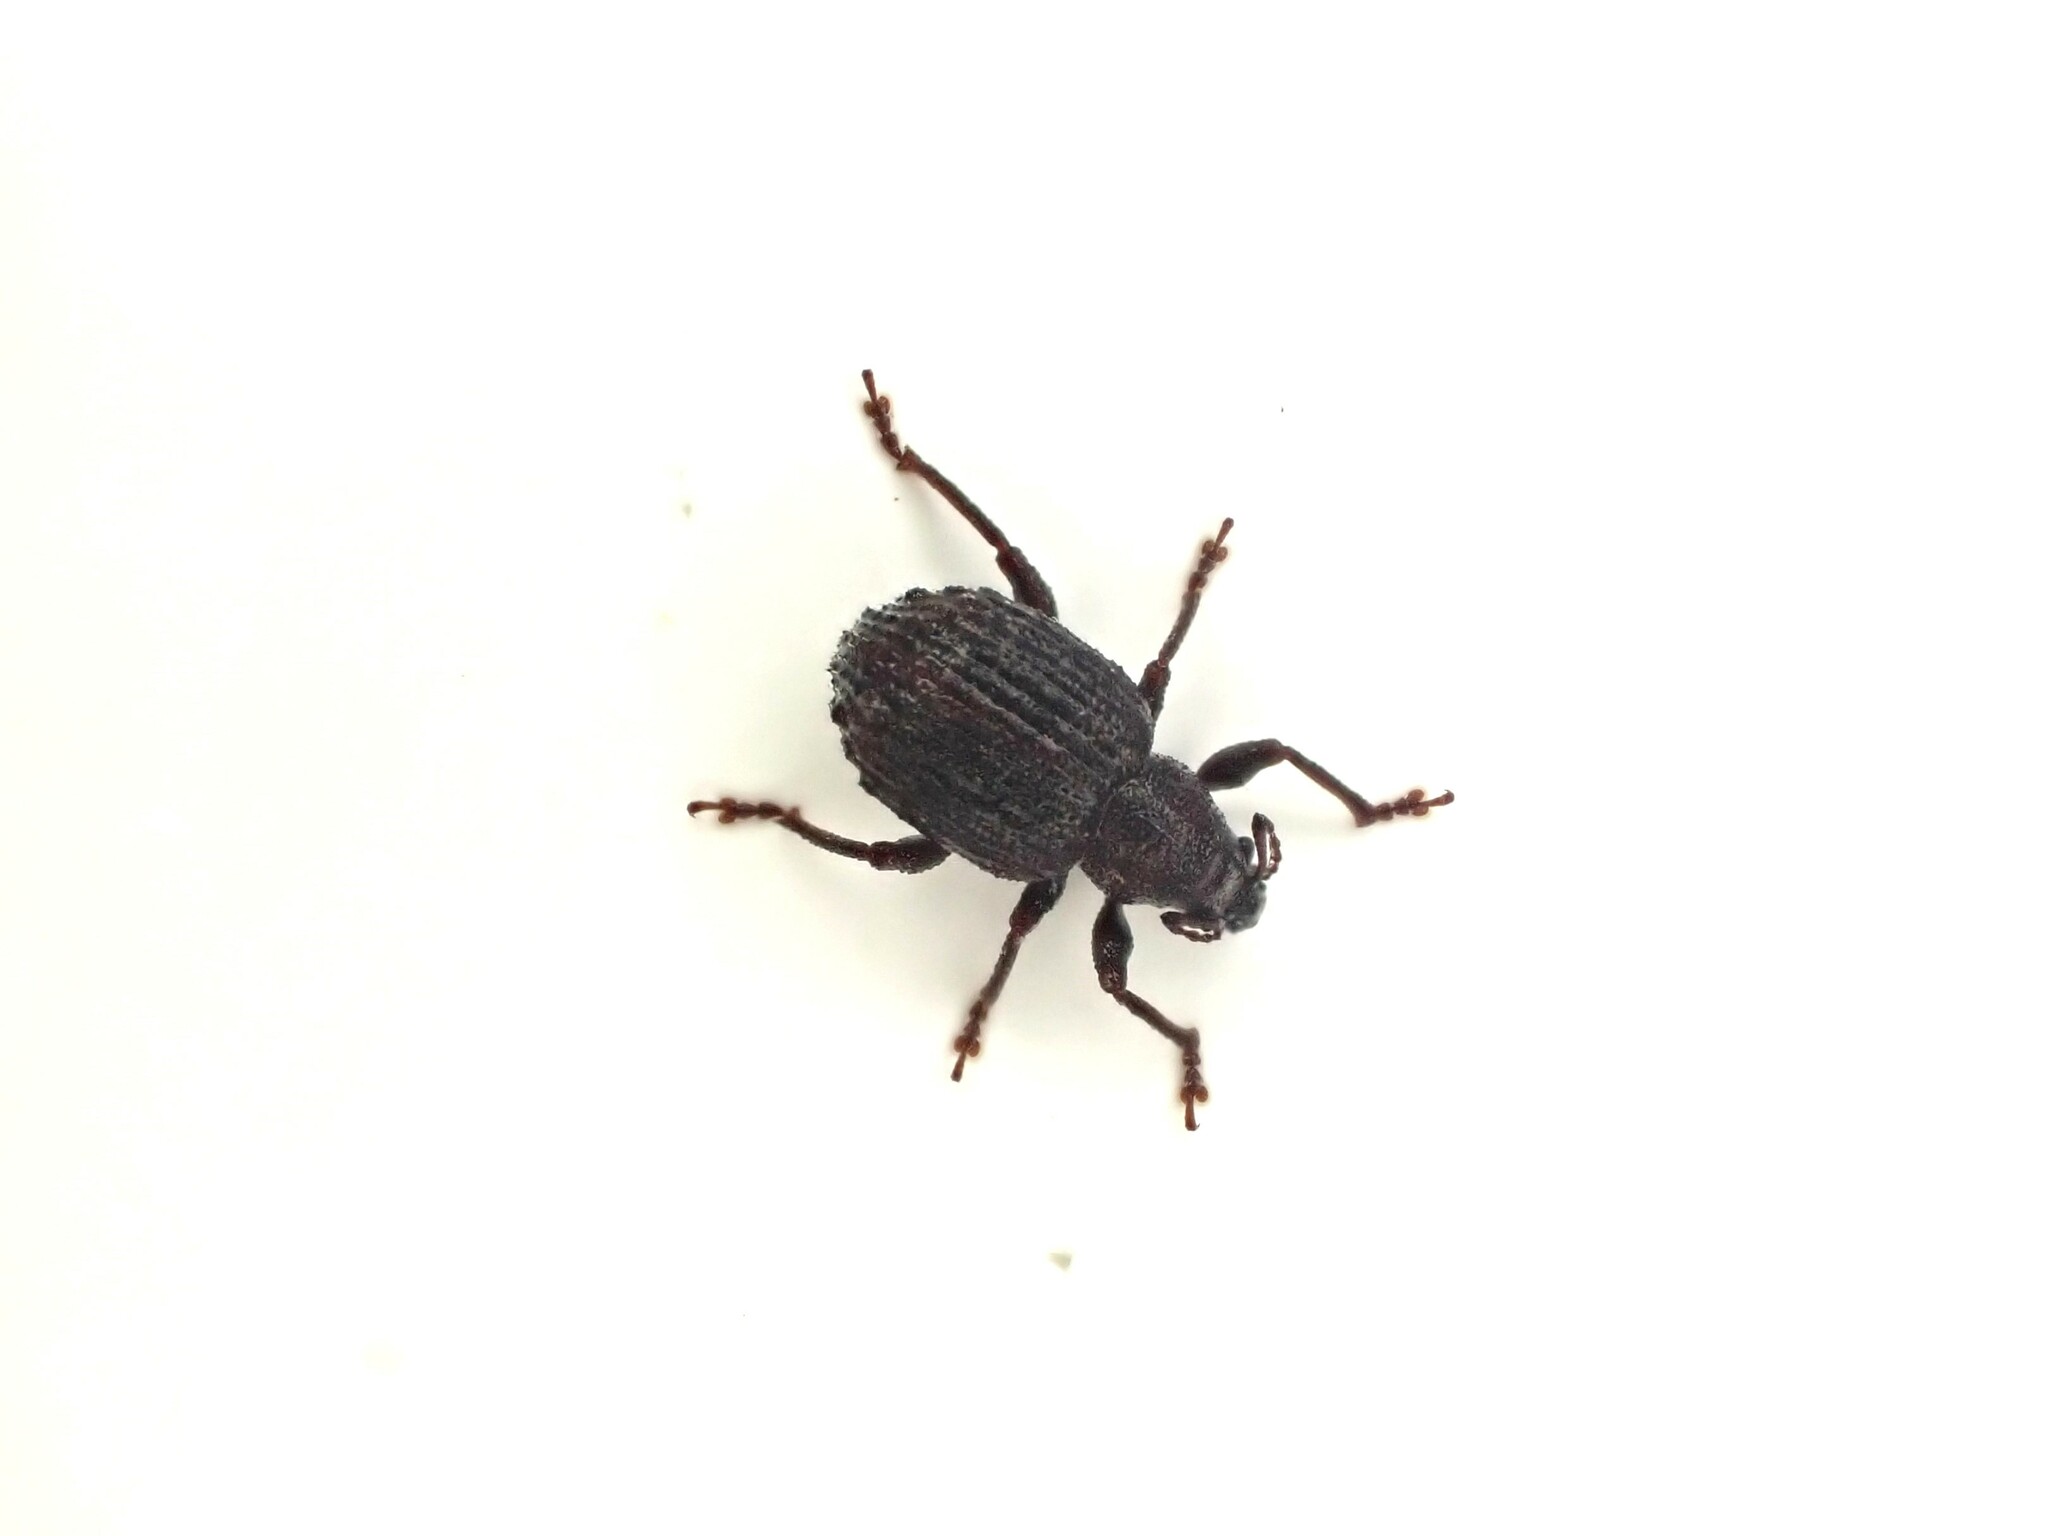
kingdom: Animalia
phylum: Arthropoda
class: Insecta
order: Coleoptera
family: Curculionidae
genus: Phlyctinus
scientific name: Phlyctinus callosus
